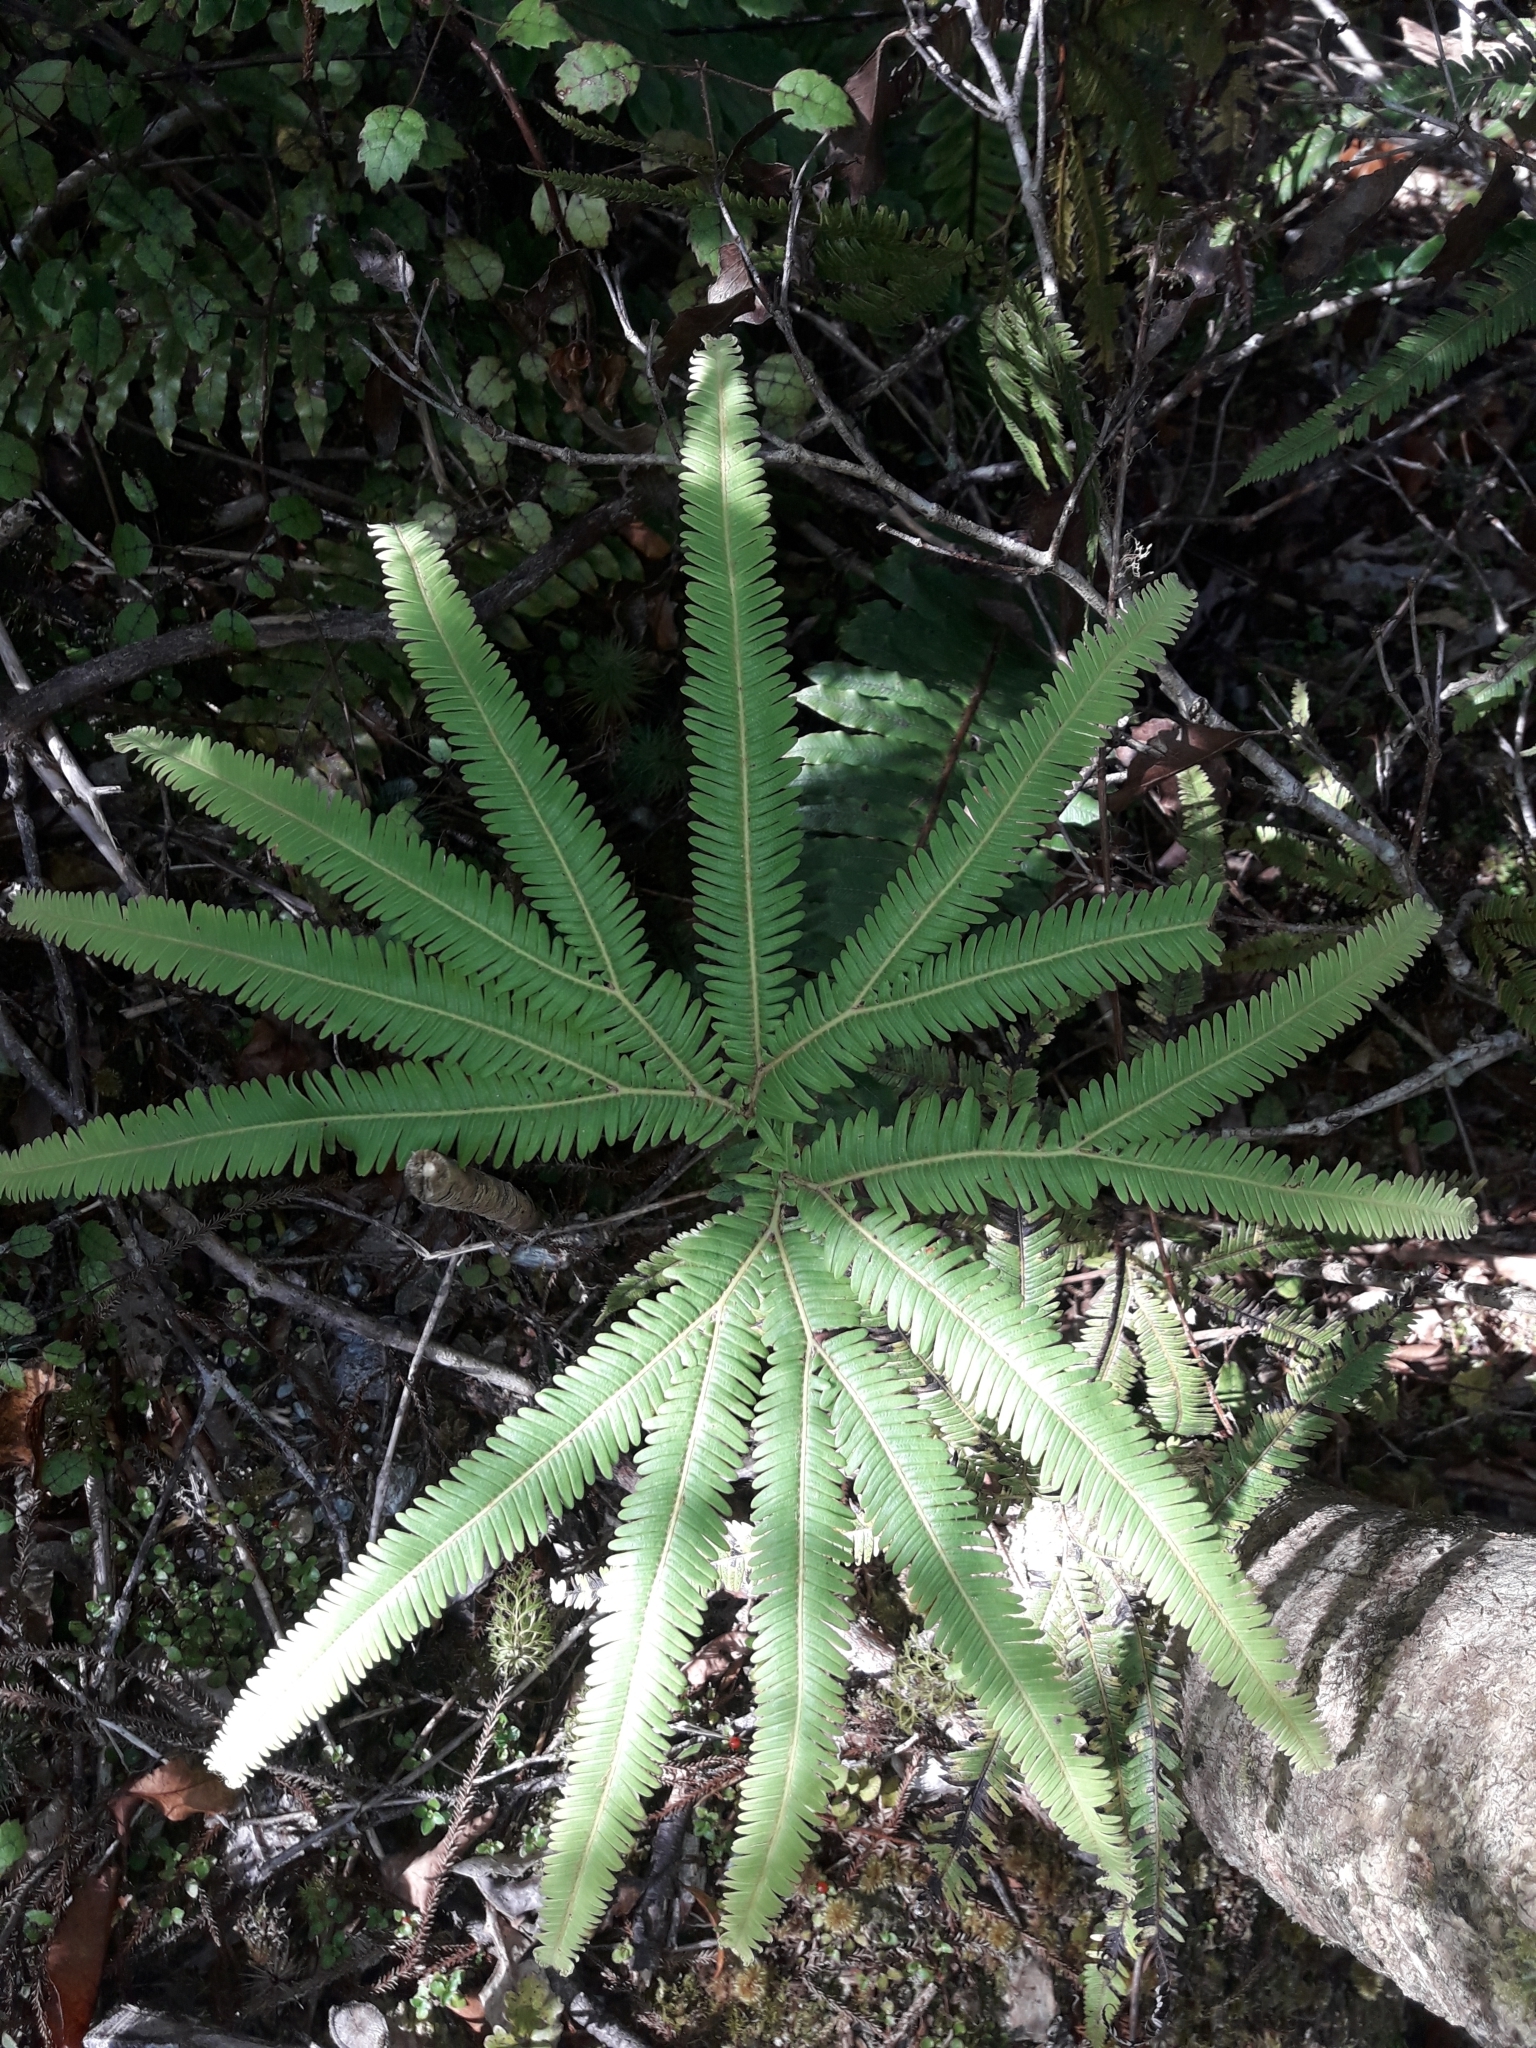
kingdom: Plantae
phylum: Tracheophyta
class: Polypodiopsida
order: Gleicheniales
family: Gleicheniaceae
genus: Sticherus
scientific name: Sticherus cunninghamii
